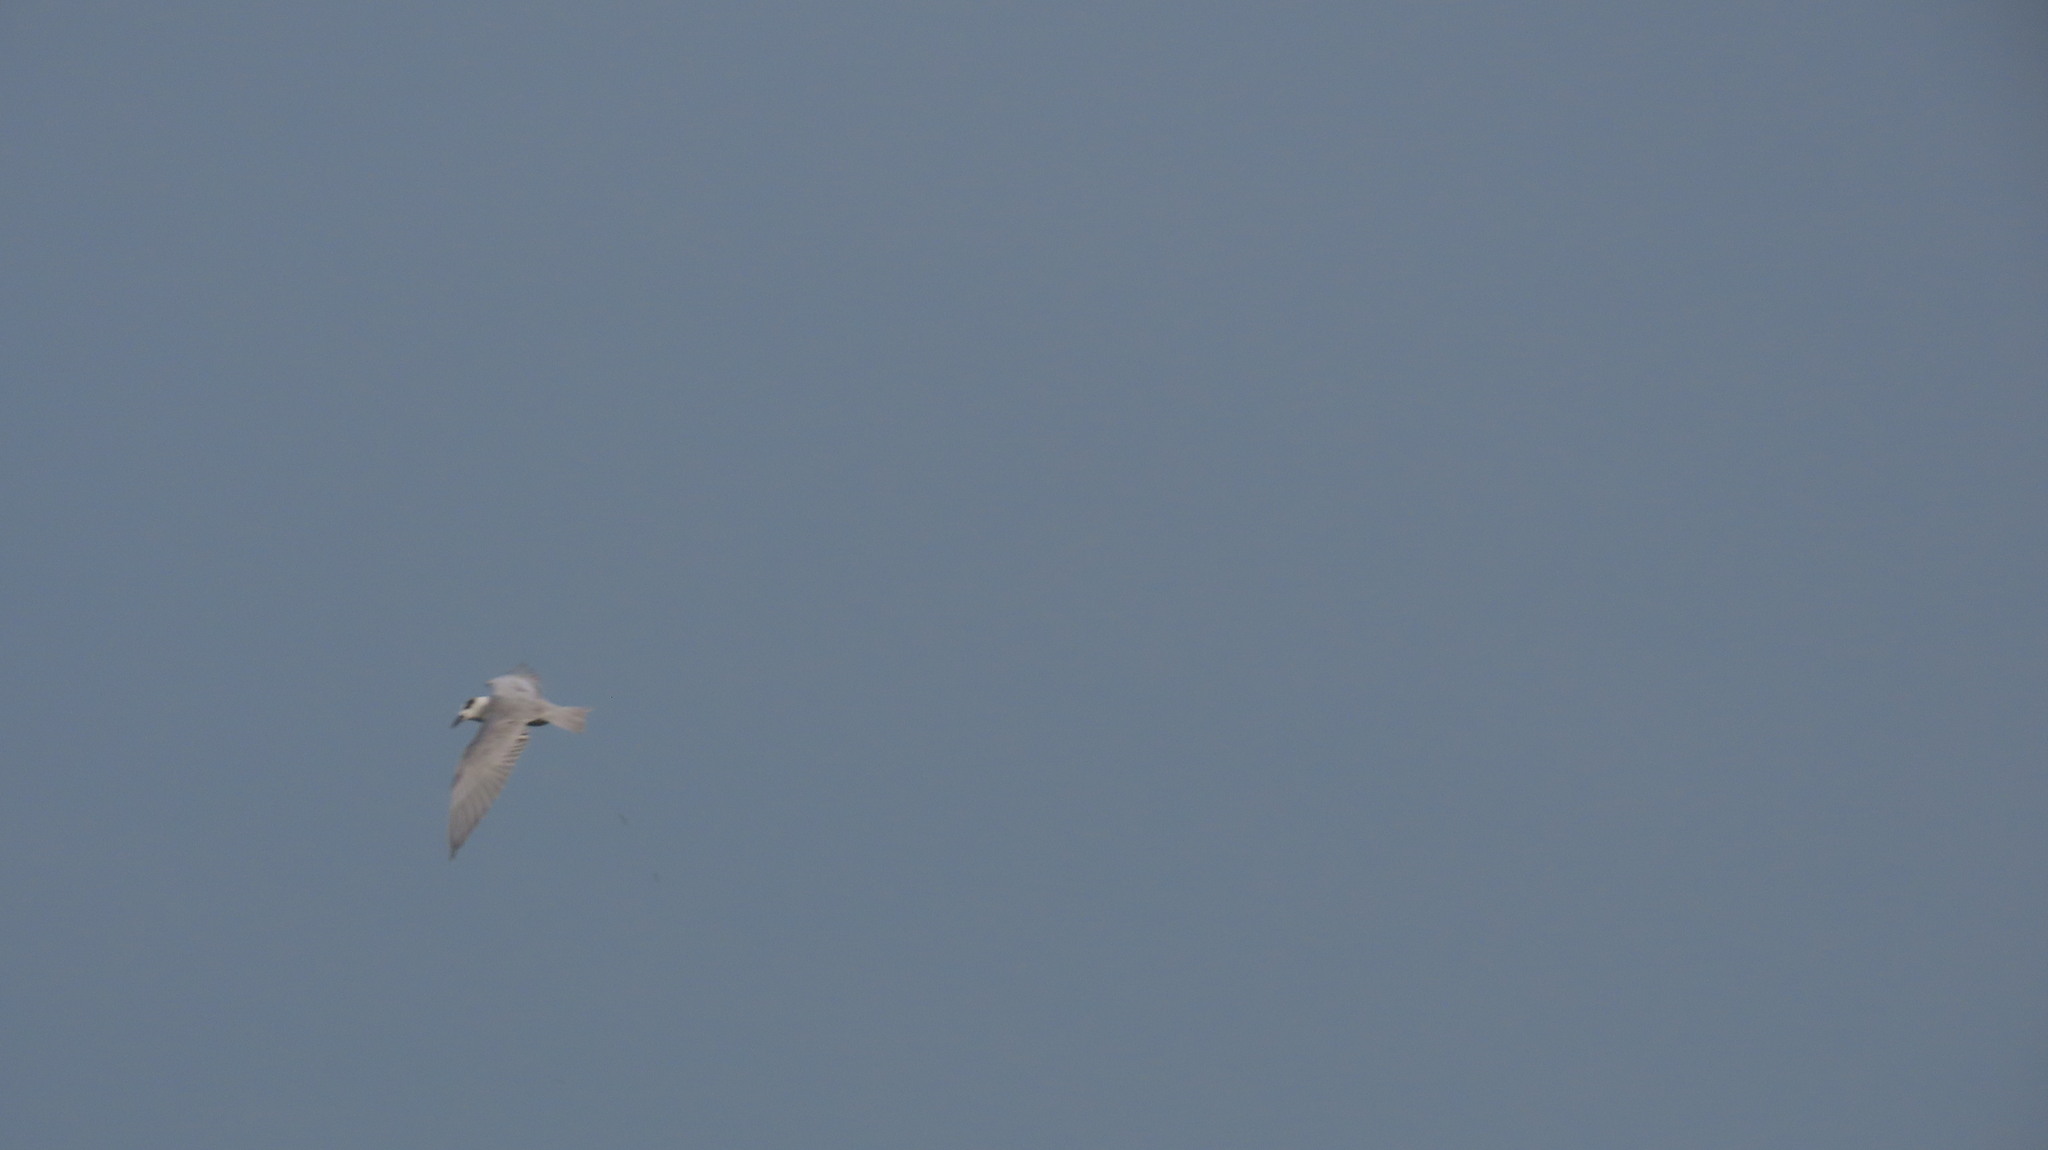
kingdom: Animalia
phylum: Chordata
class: Aves
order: Charadriiformes
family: Laridae
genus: Chlidonias
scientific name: Chlidonias hybrida
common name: Whiskered tern
